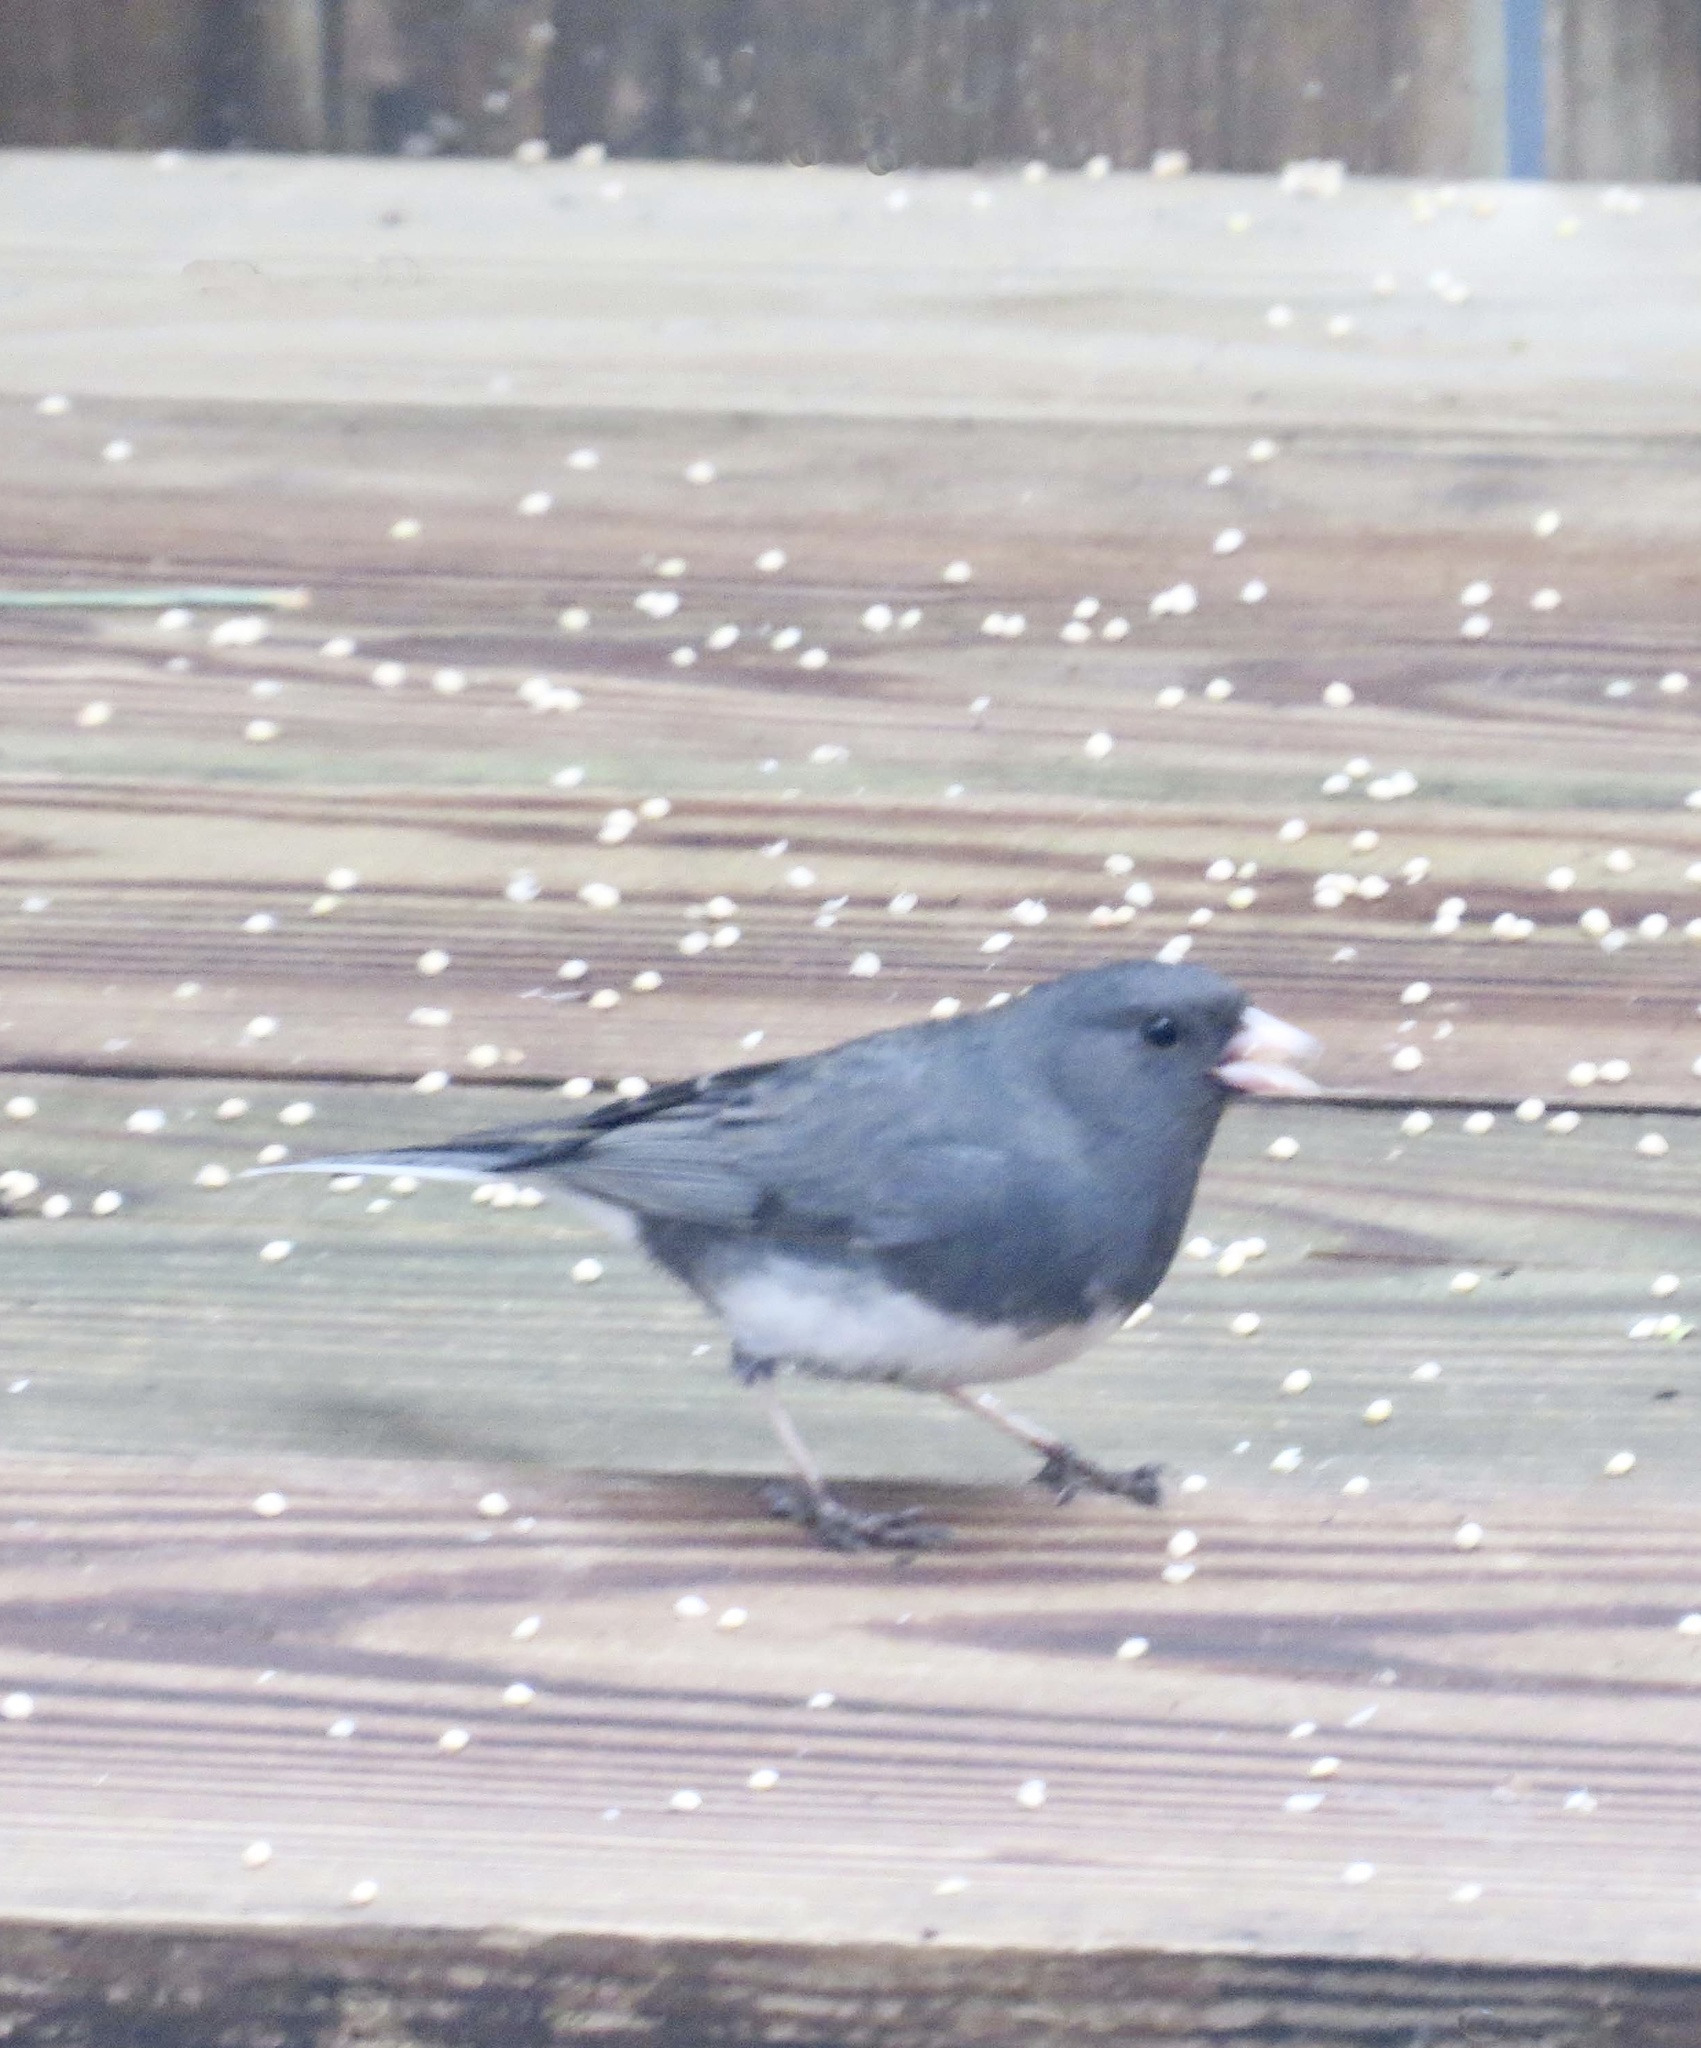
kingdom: Animalia
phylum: Chordata
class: Aves
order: Passeriformes
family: Passerellidae
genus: Junco
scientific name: Junco hyemalis
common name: Dark-eyed junco
